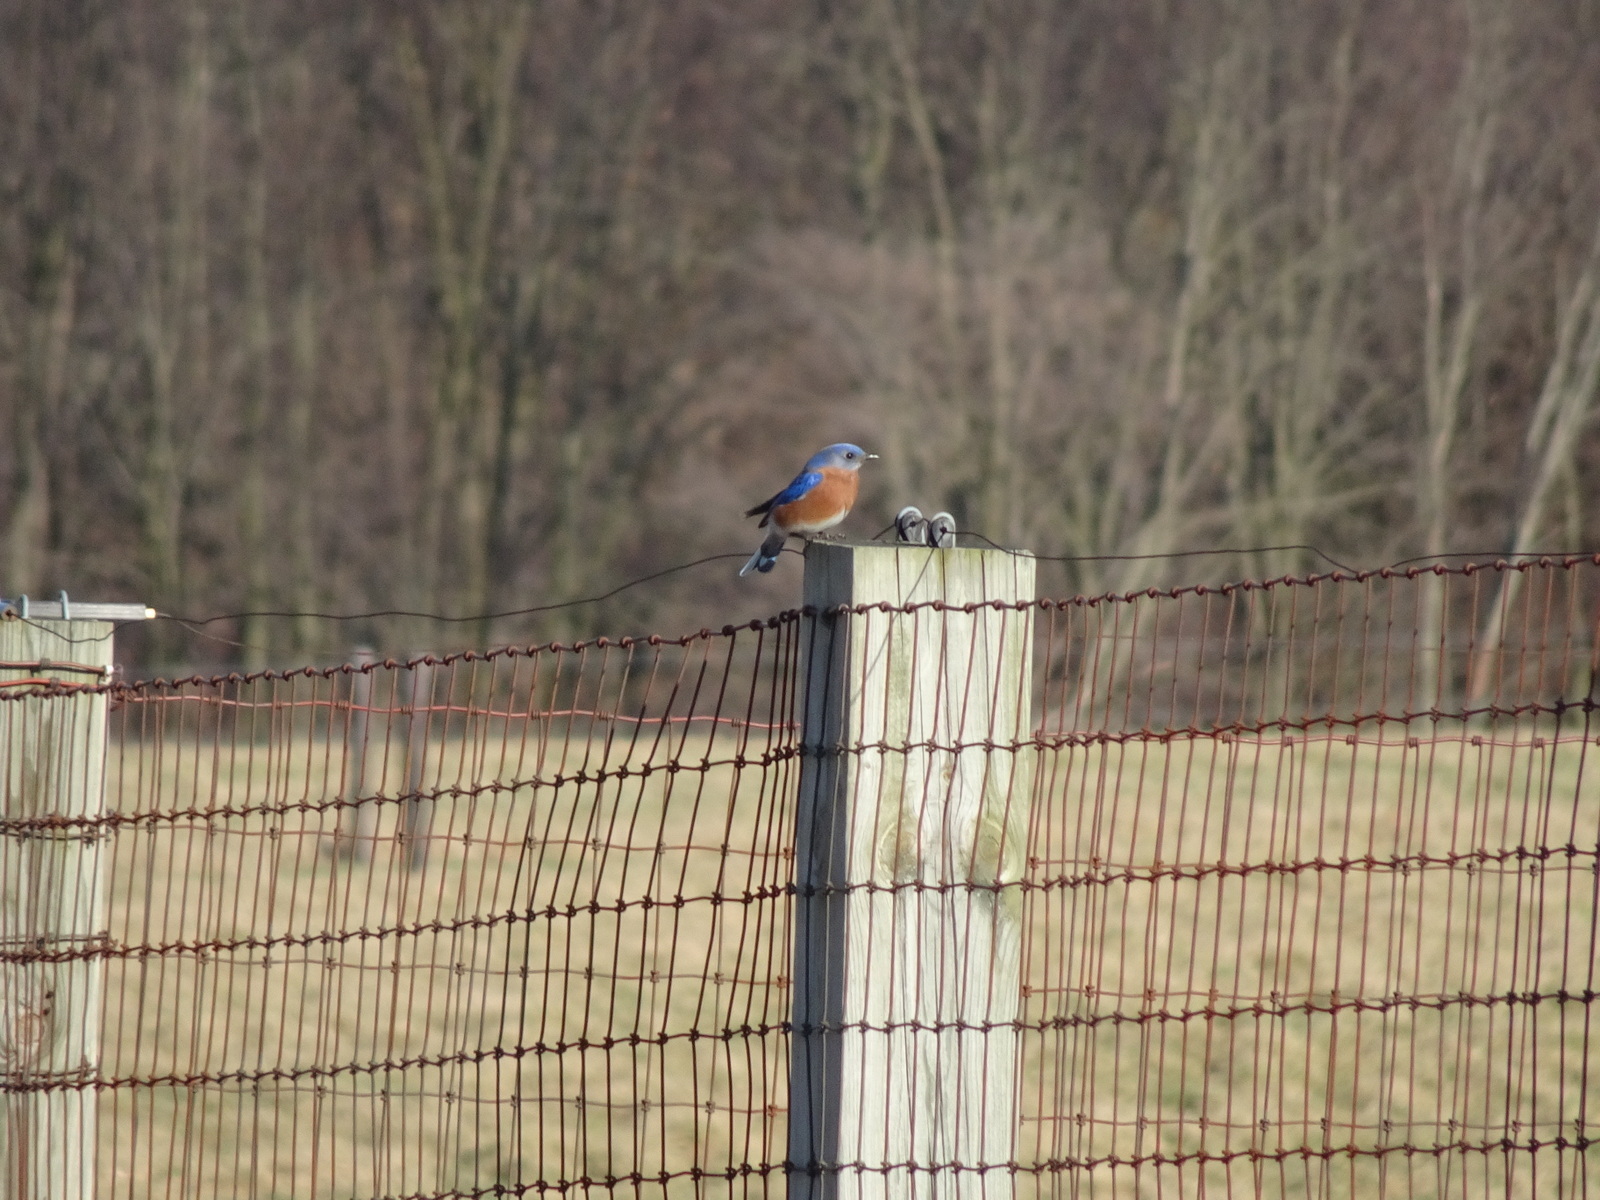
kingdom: Animalia
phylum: Chordata
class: Aves
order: Passeriformes
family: Turdidae
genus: Sialia
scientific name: Sialia sialis
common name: Eastern bluebird
